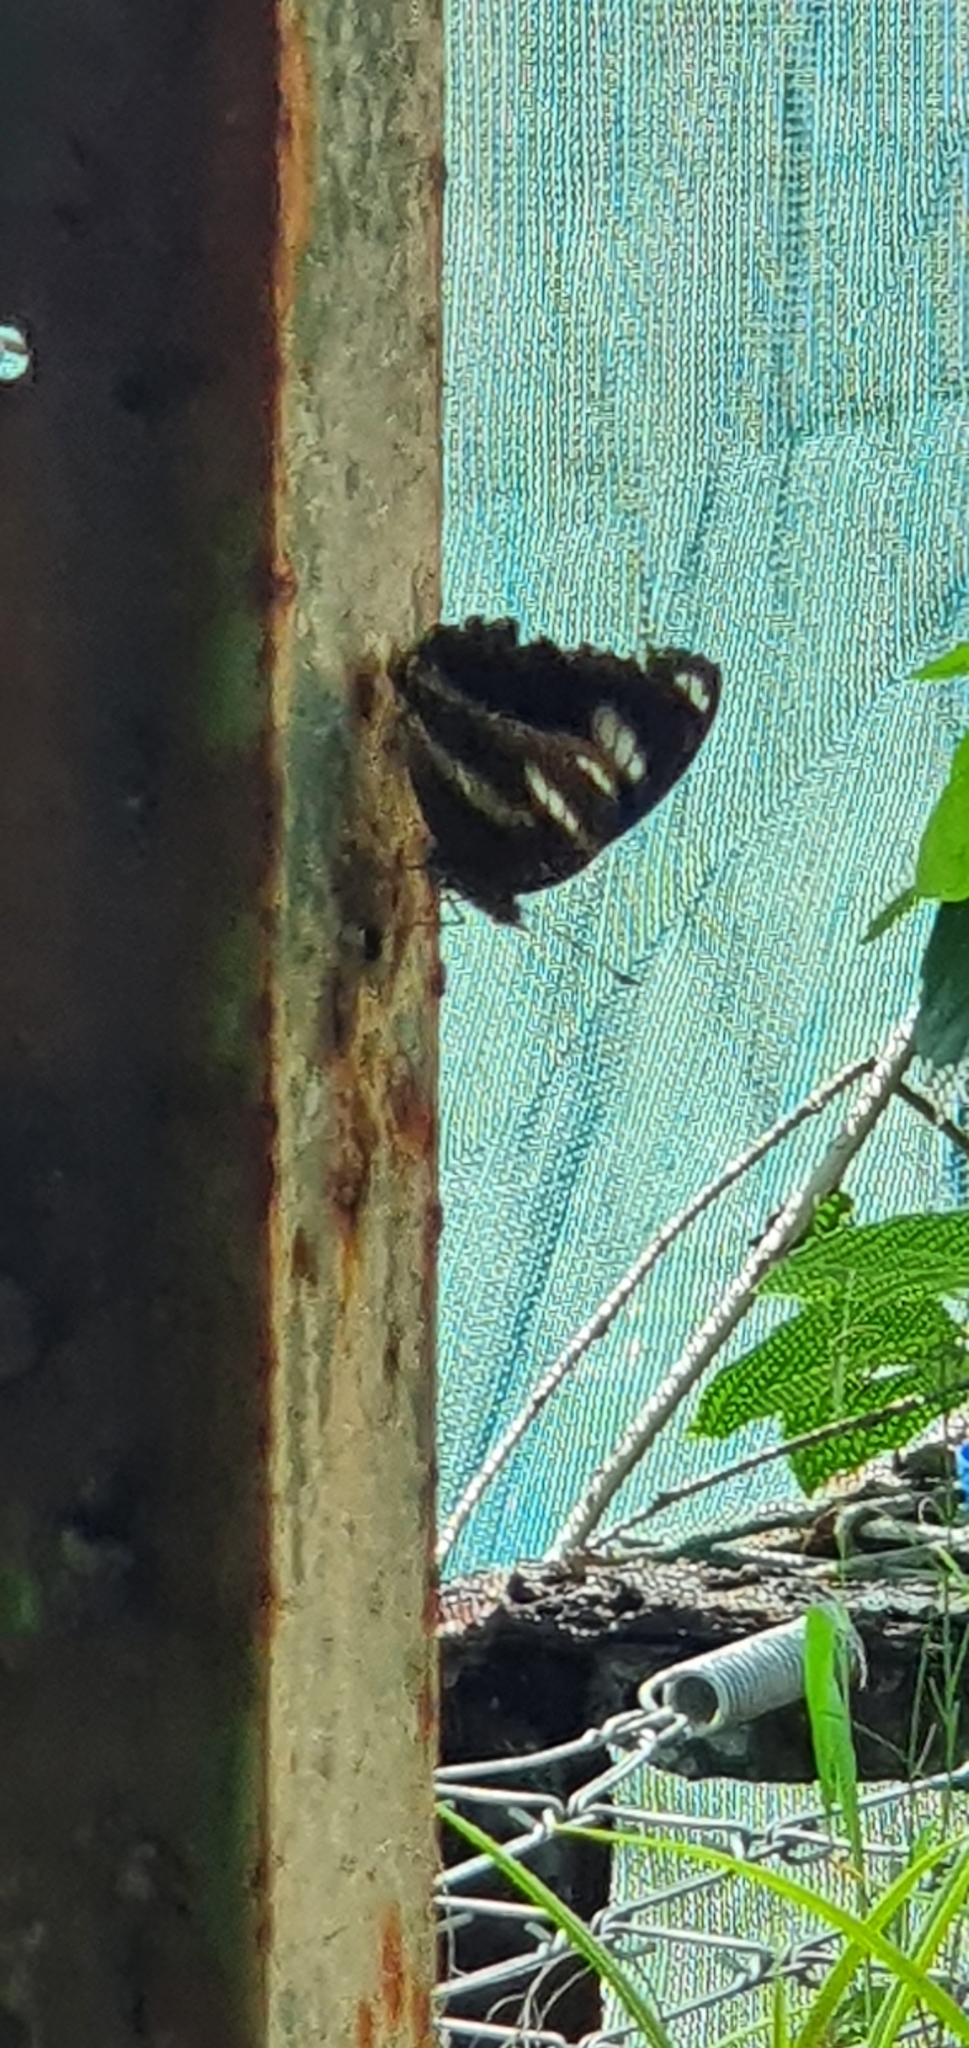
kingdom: Animalia
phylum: Arthropoda
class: Insecta
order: Lepidoptera
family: Nymphalidae
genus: Hypolimnas
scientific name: Hypolimnas bolina
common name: Great eggfly
